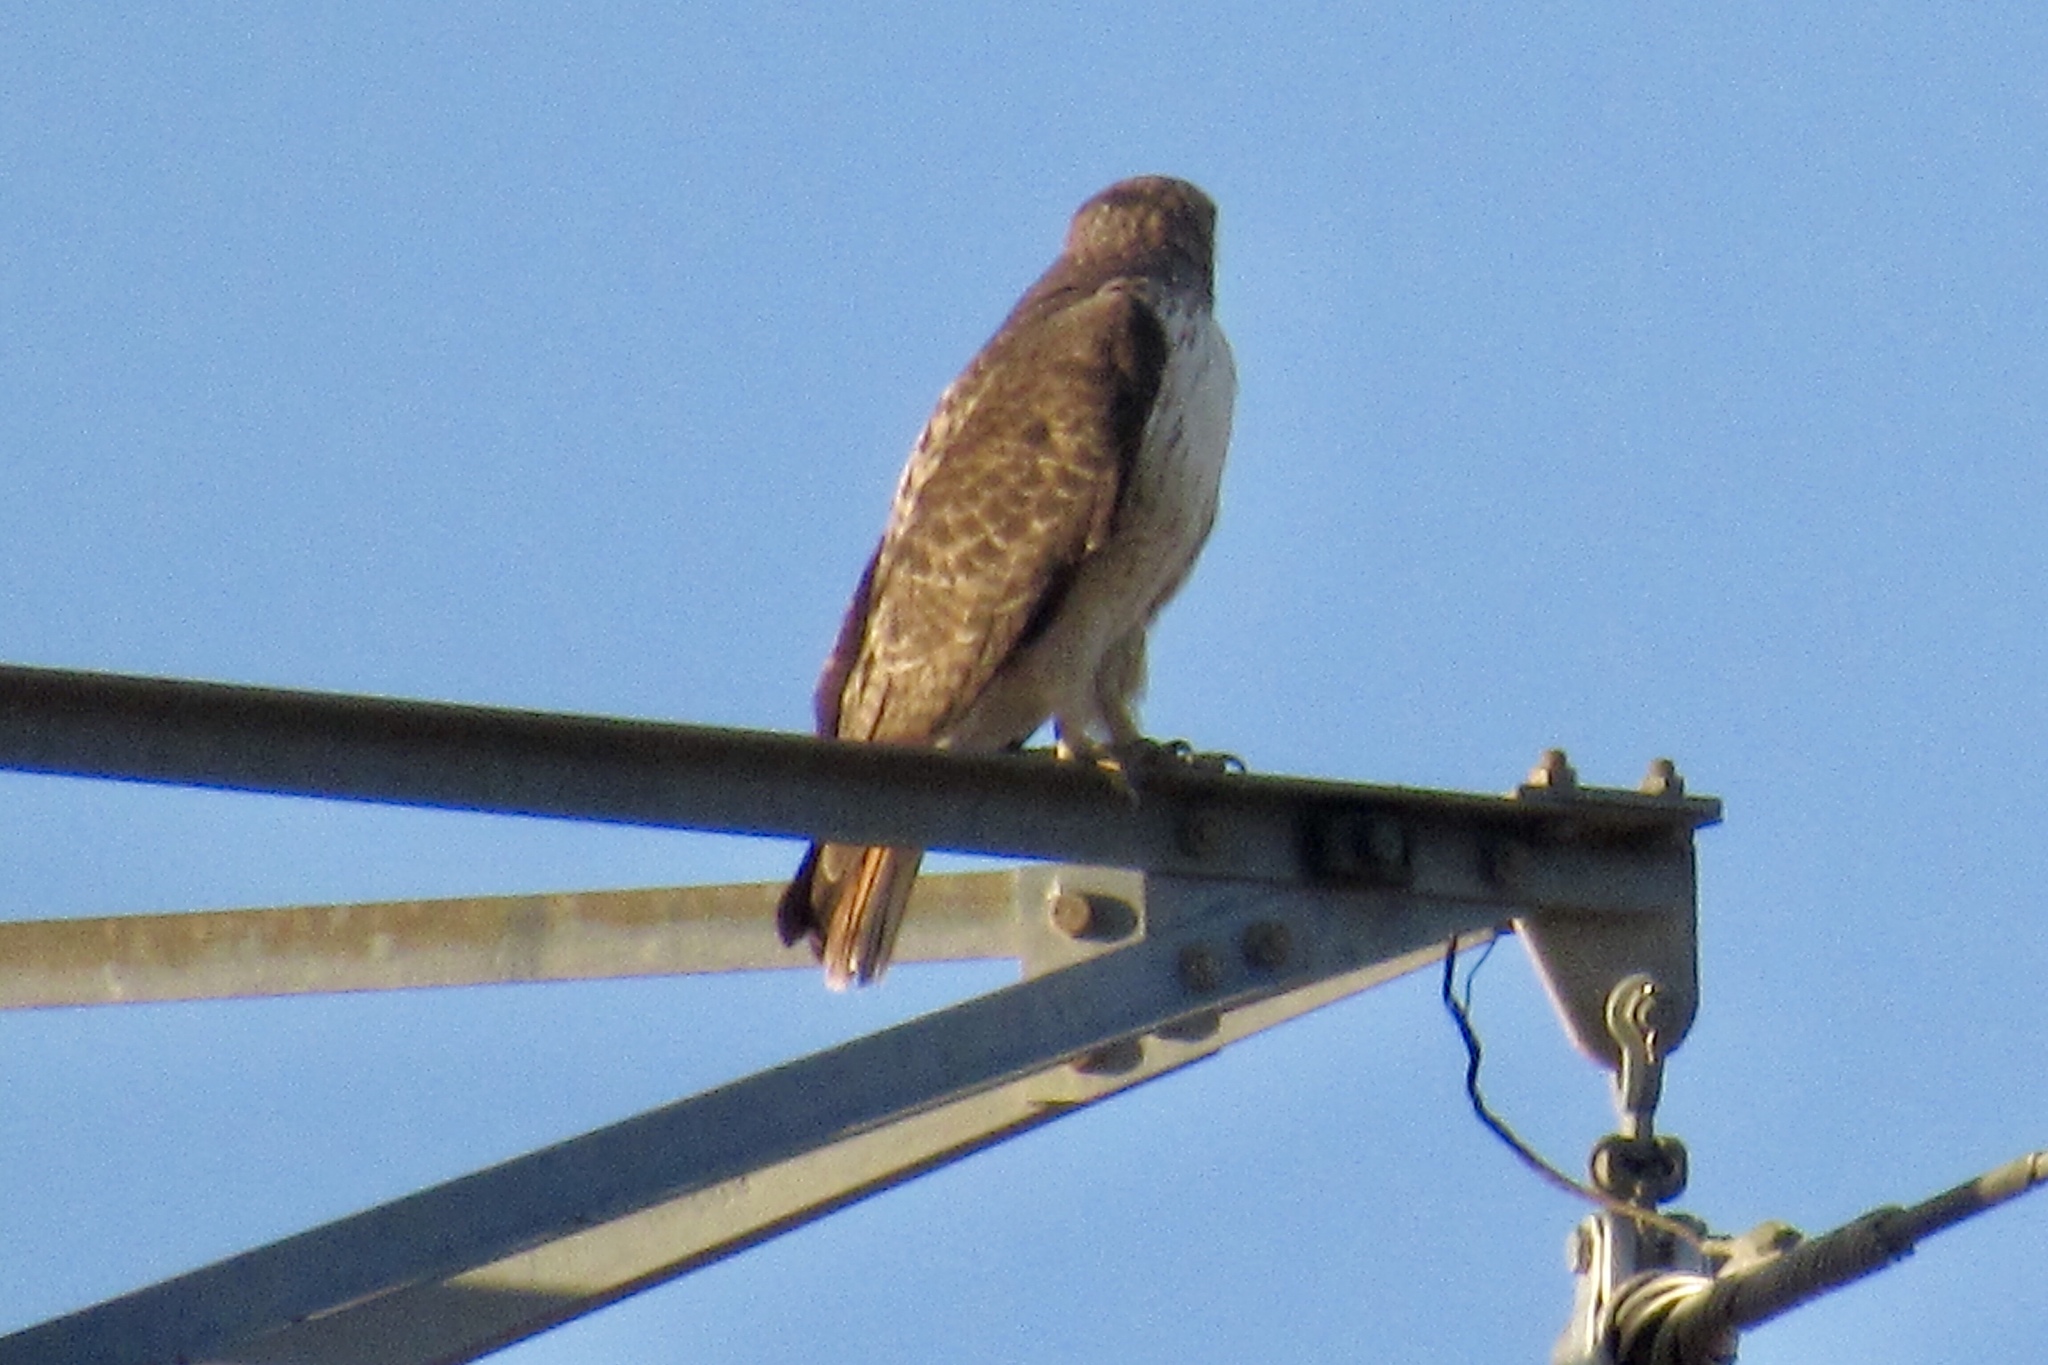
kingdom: Animalia
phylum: Chordata
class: Aves
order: Accipitriformes
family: Accipitridae
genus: Buteo
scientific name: Buteo jamaicensis
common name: Red-tailed hawk
